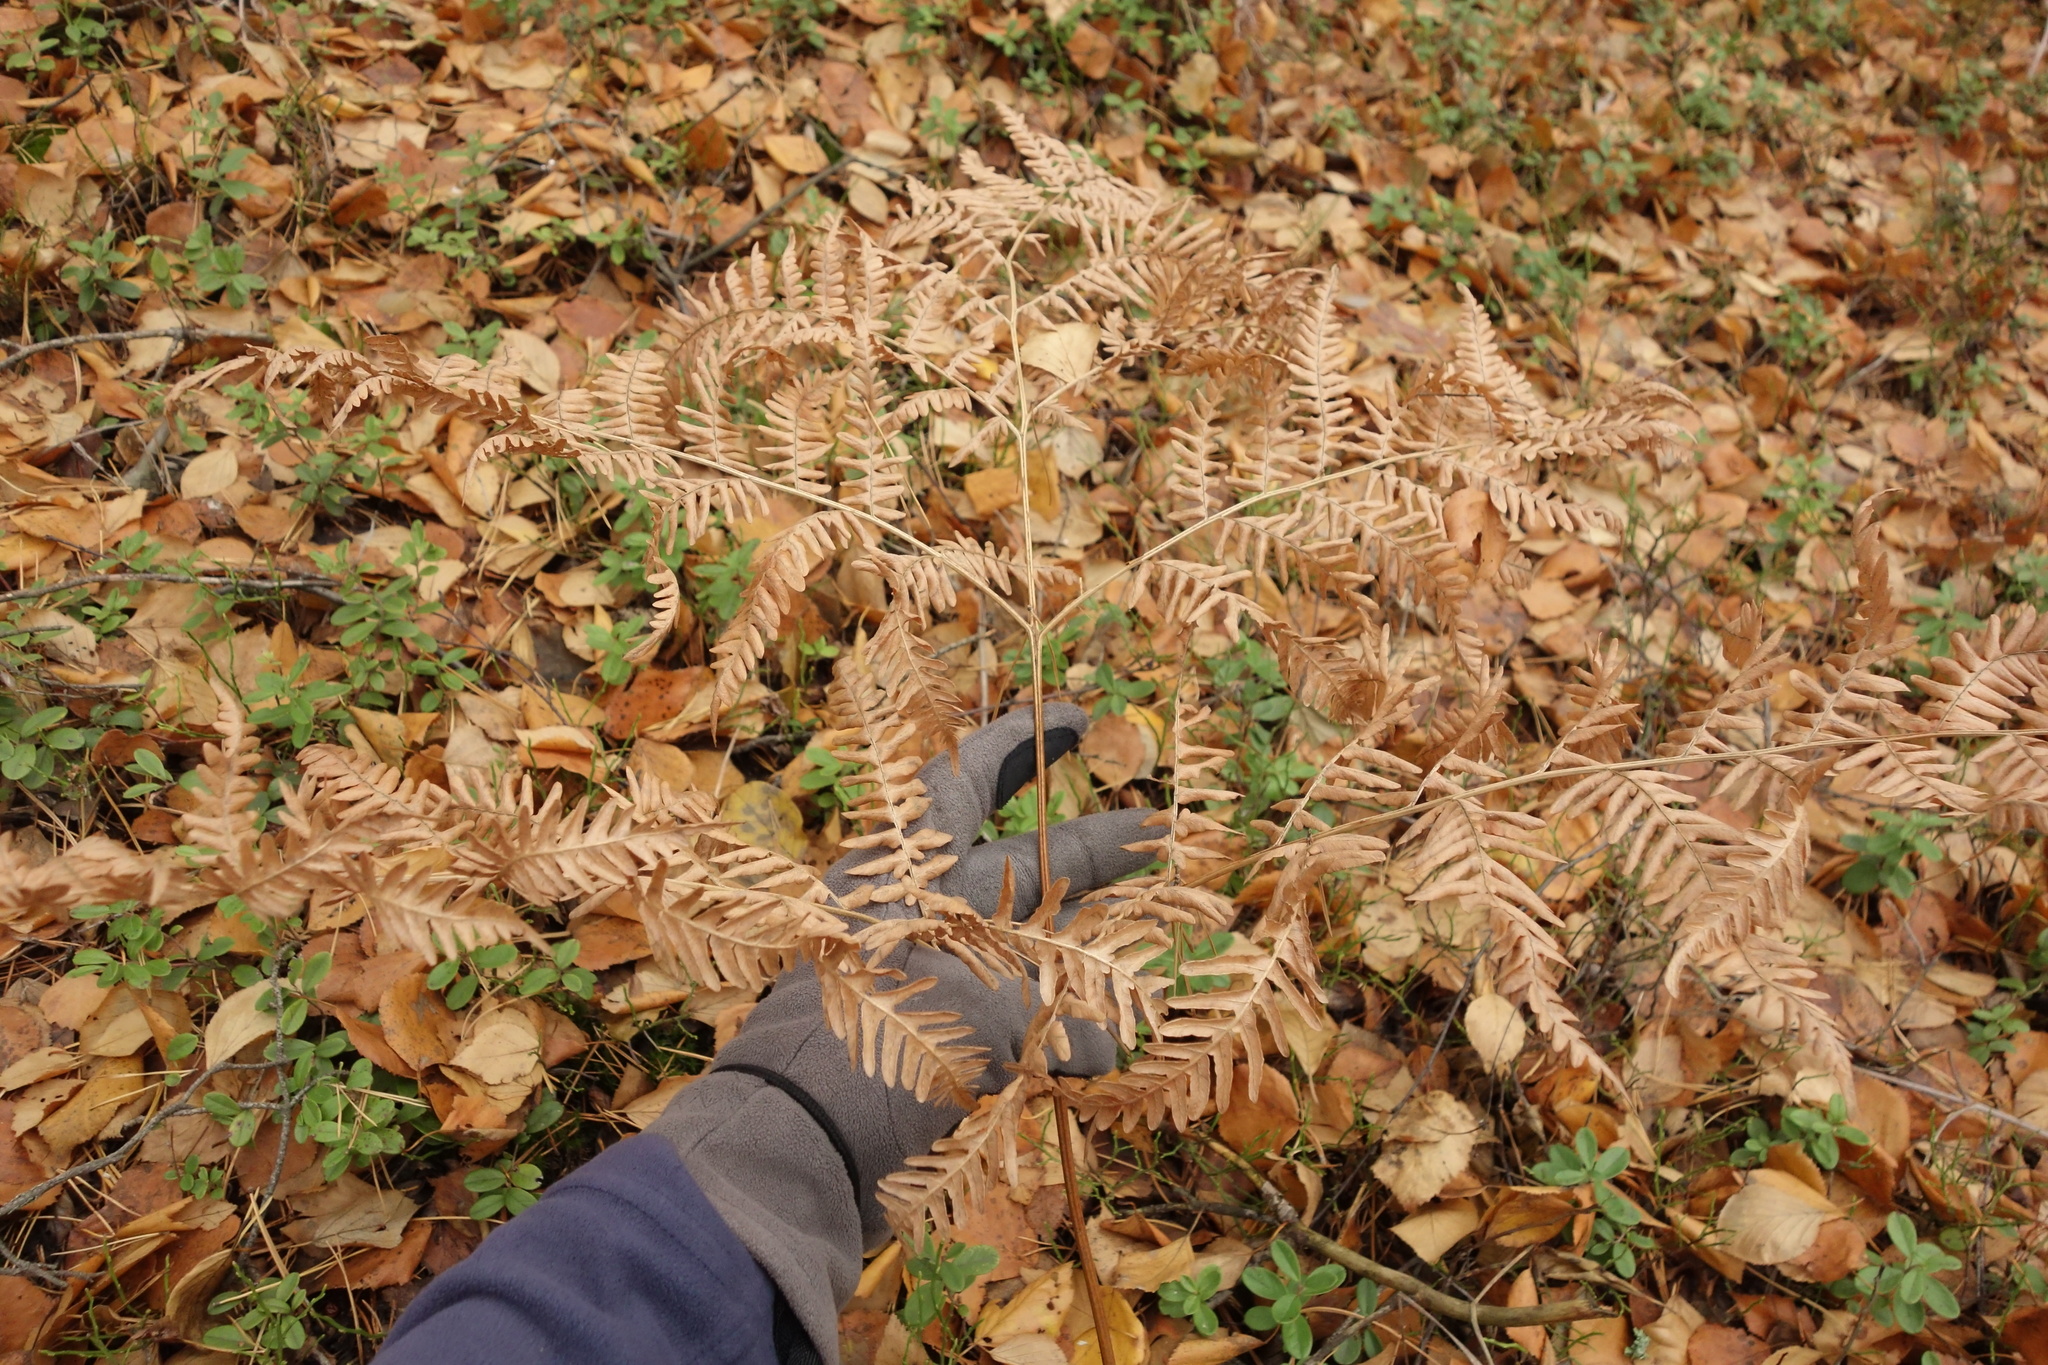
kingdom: Plantae
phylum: Tracheophyta
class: Polypodiopsida
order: Polypodiales
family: Dennstaedtiaceae
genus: Pteridium
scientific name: Pteridium aquilinum
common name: Bracken
